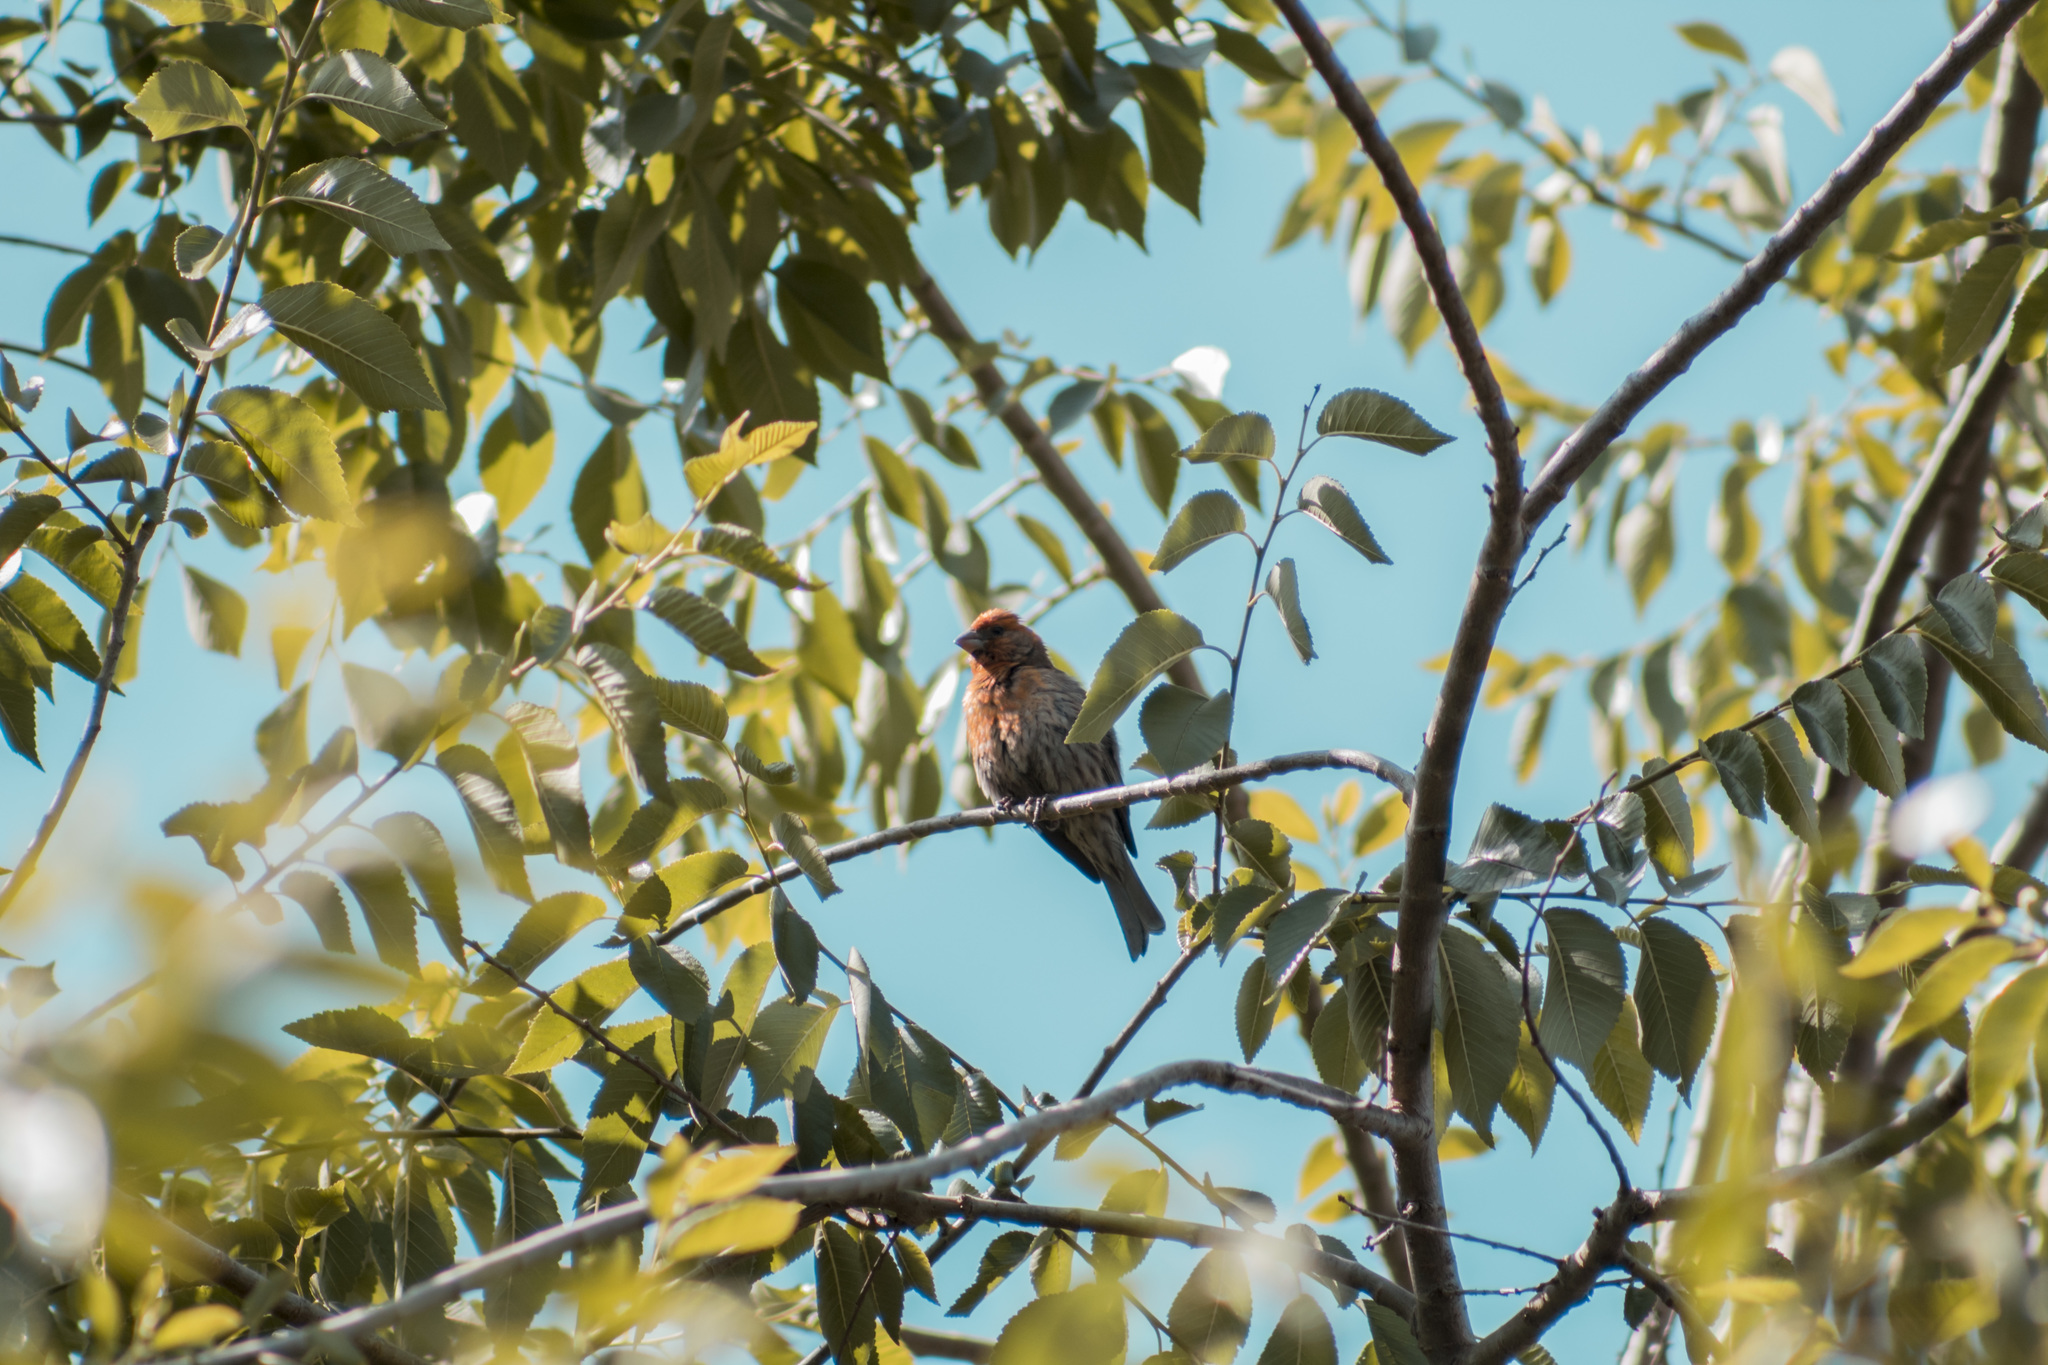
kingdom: Animalia
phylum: Chordata
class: Aves
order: Passeriformes
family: Fringillidae
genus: Haemorhous
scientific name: Haemorhous mexicanus
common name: House finch
